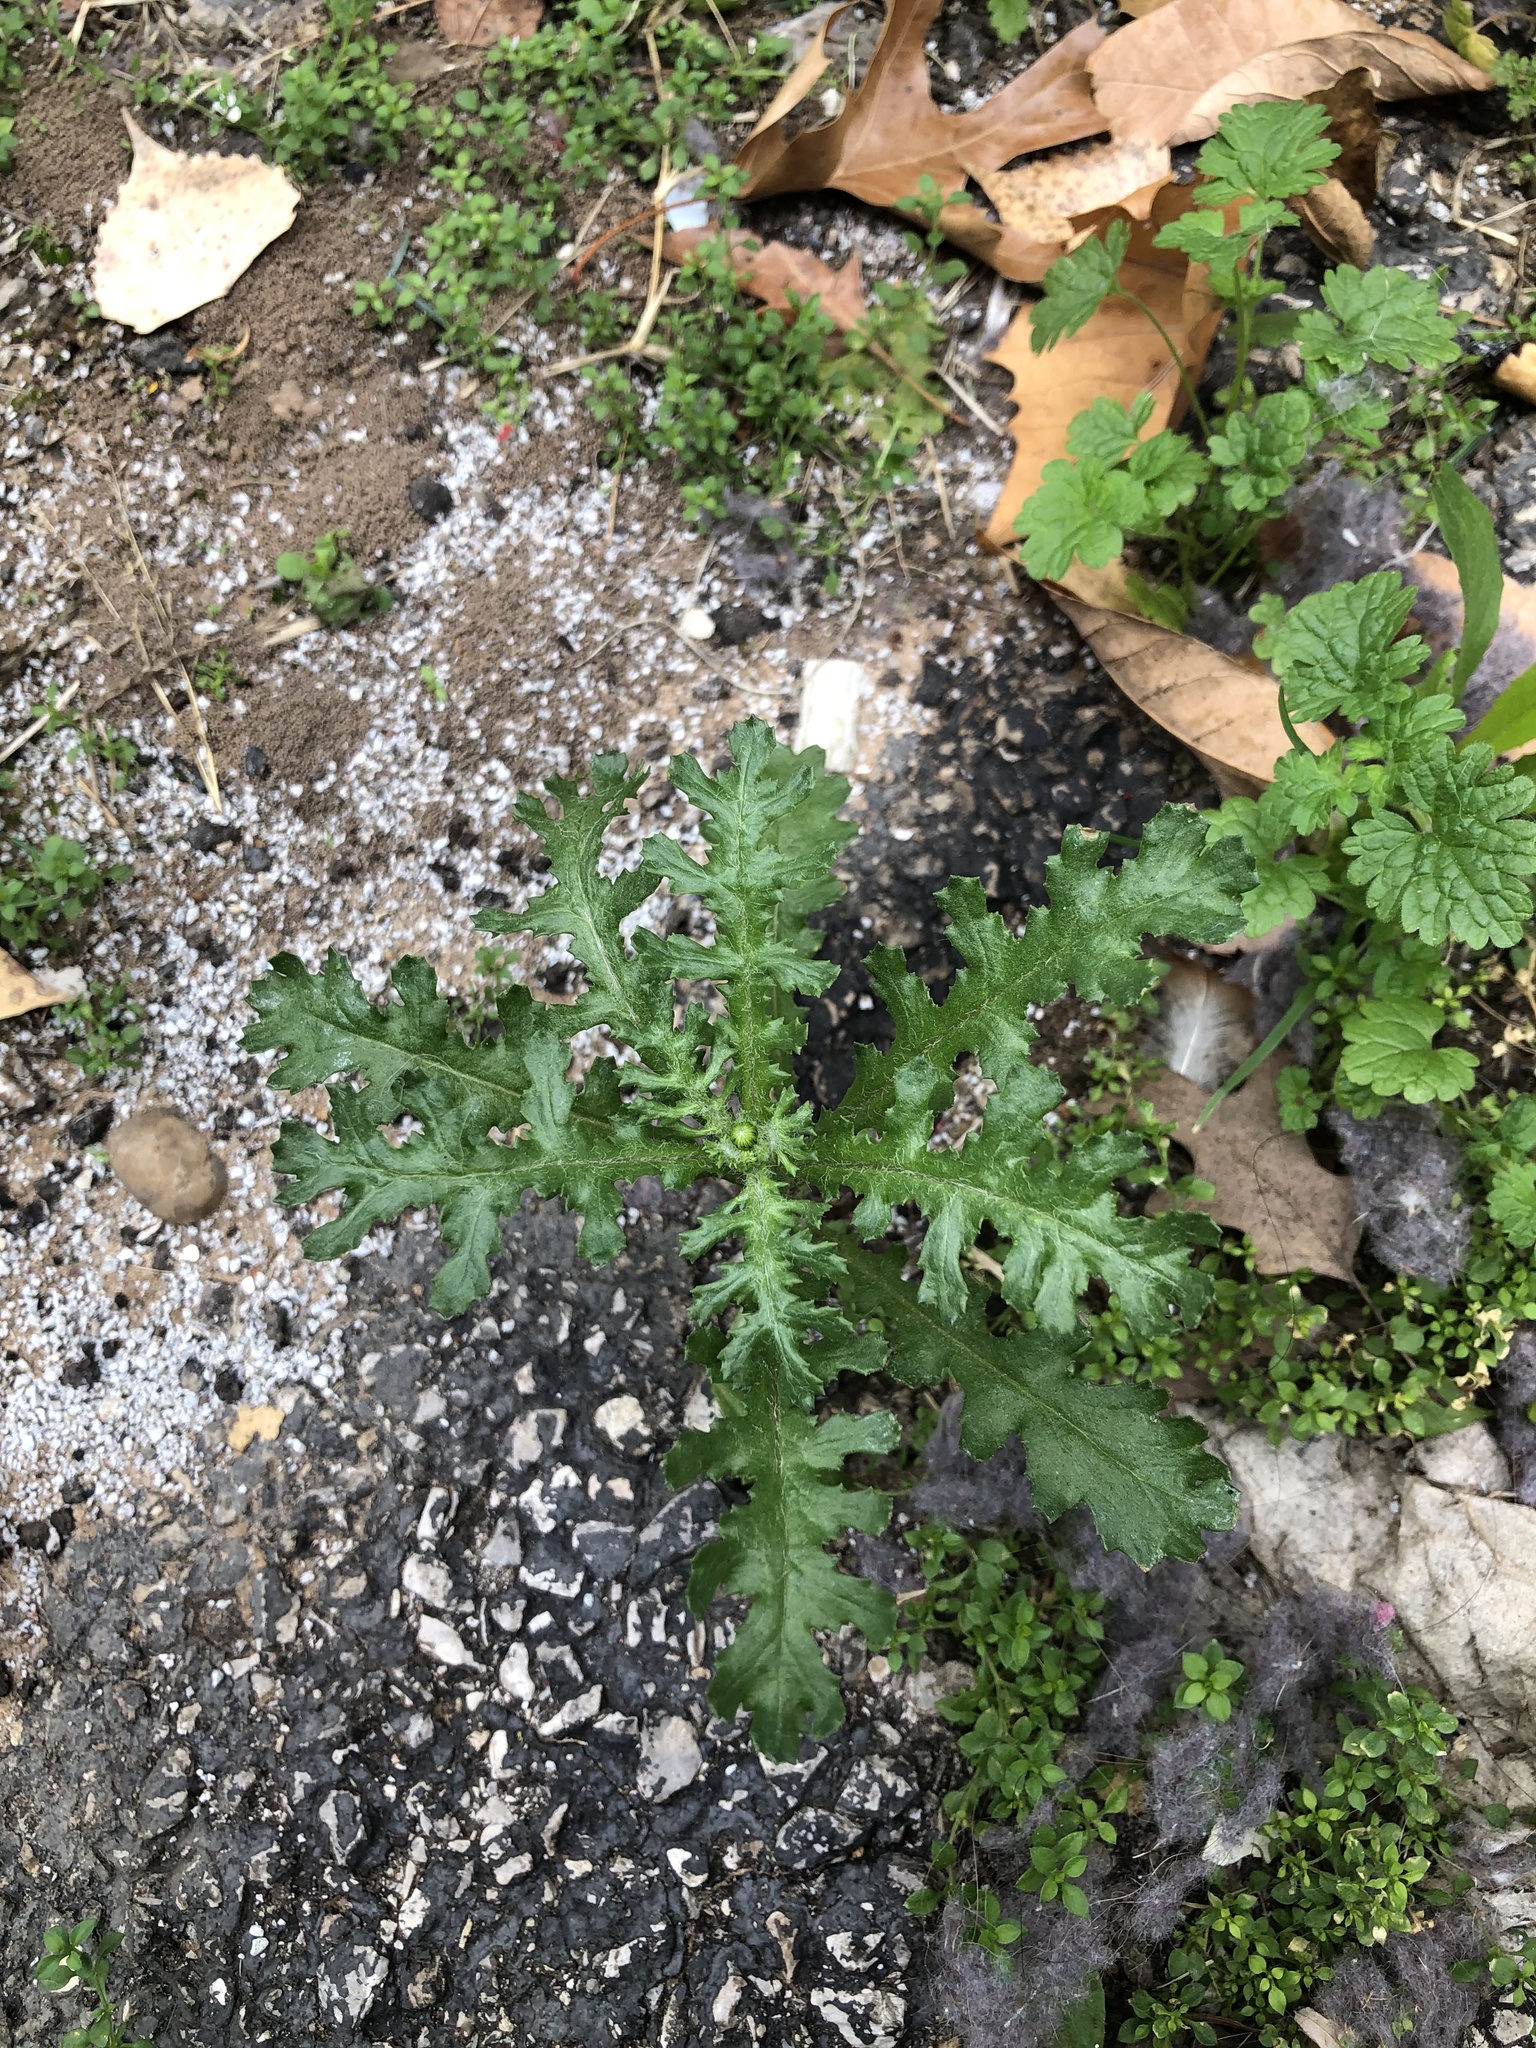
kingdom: Plantae
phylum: Tracheophyta
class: Magnoliopsida
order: Asterales
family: Asteraceae
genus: Senecio
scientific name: Senecio vulgaris
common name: Old-man-in-the-spring
